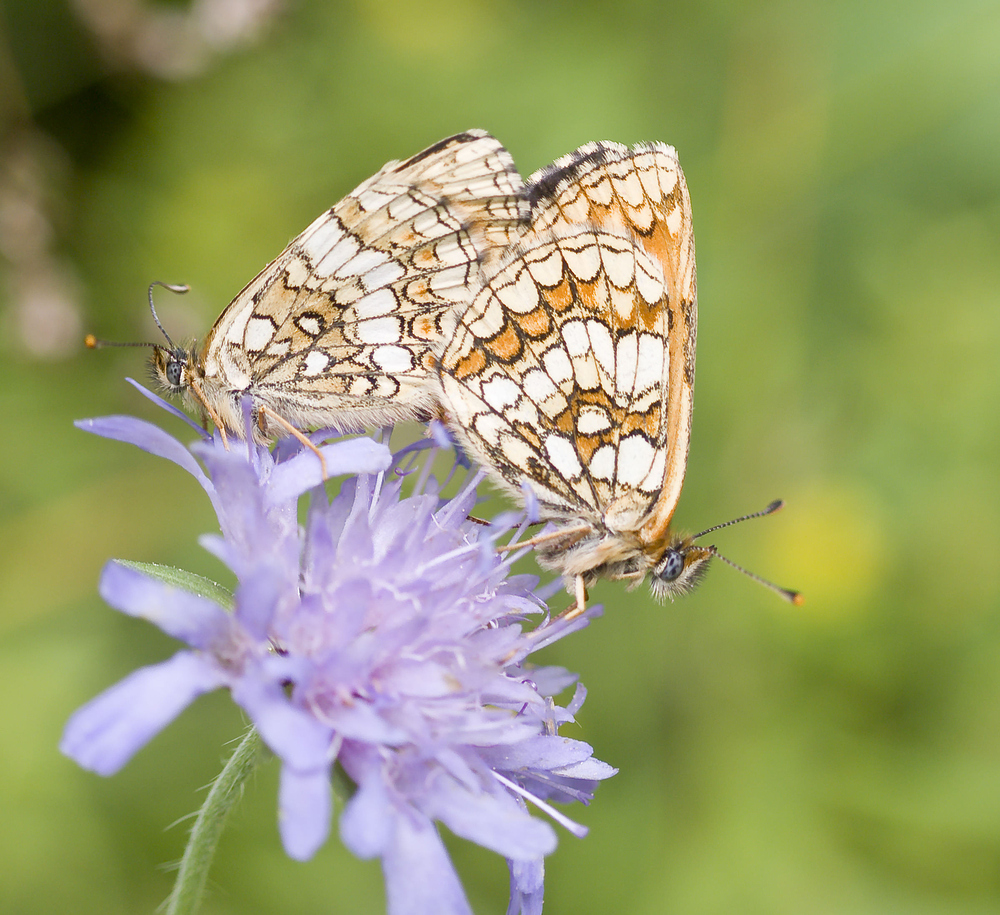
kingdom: Animalia
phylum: Arthropoda
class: Insecta
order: Lepidoptera
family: Nymphalidae
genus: Melitaea
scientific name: Melitaea athalia
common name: Heath fritillary
